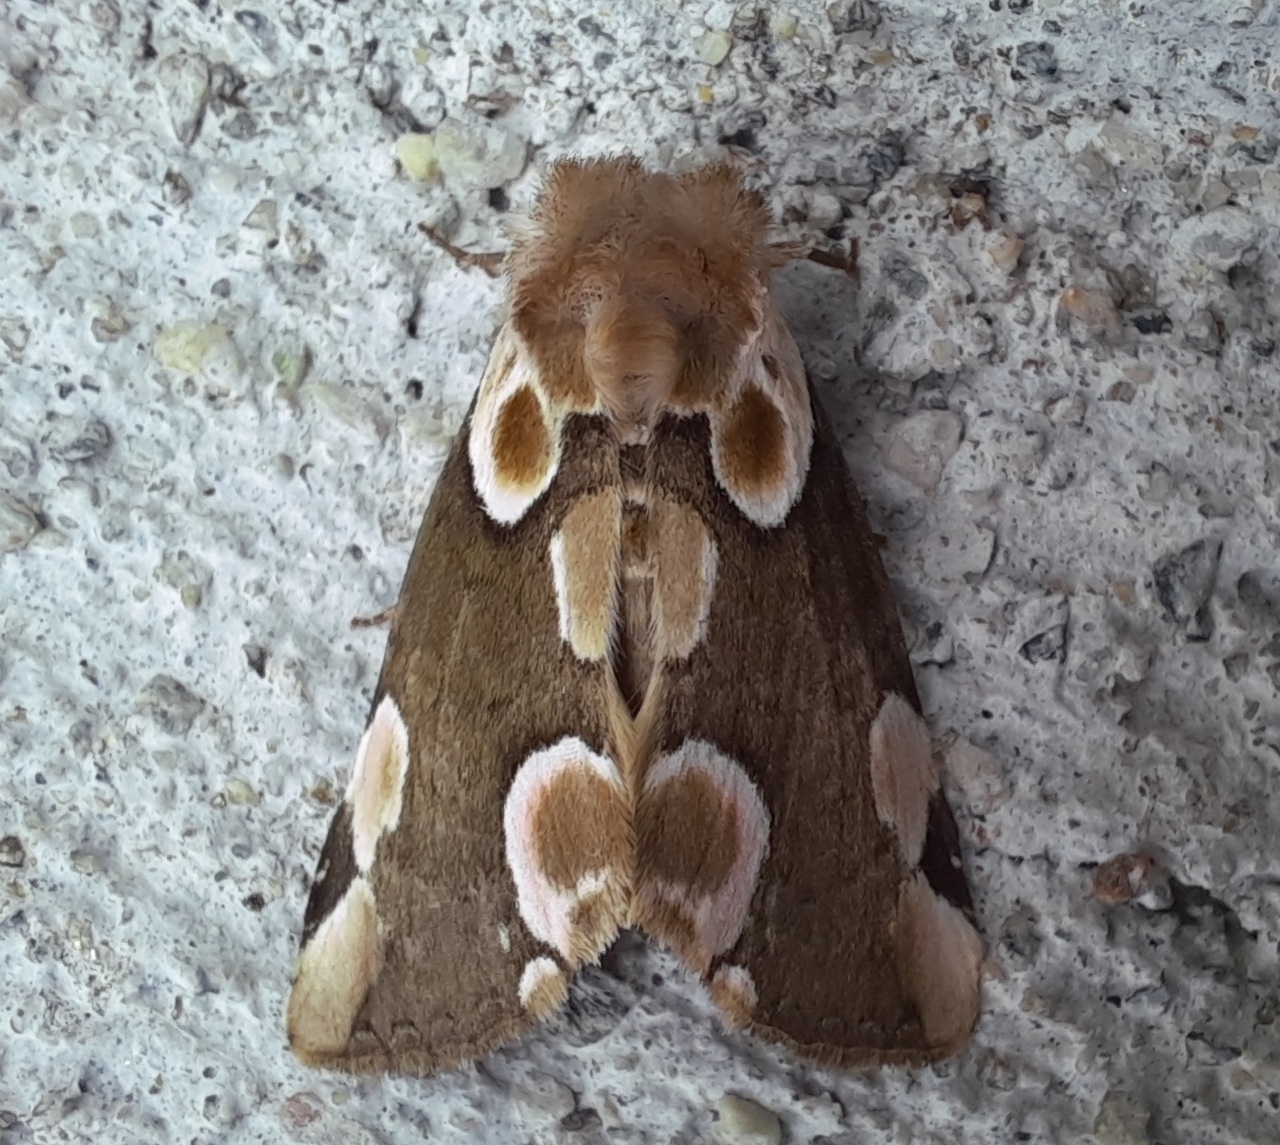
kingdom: Animalia
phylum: Arthropoda
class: Insecta
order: Lepidoptera
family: Drepanidae
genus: Thyatira
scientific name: Thyatira batis
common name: Peach blossom
